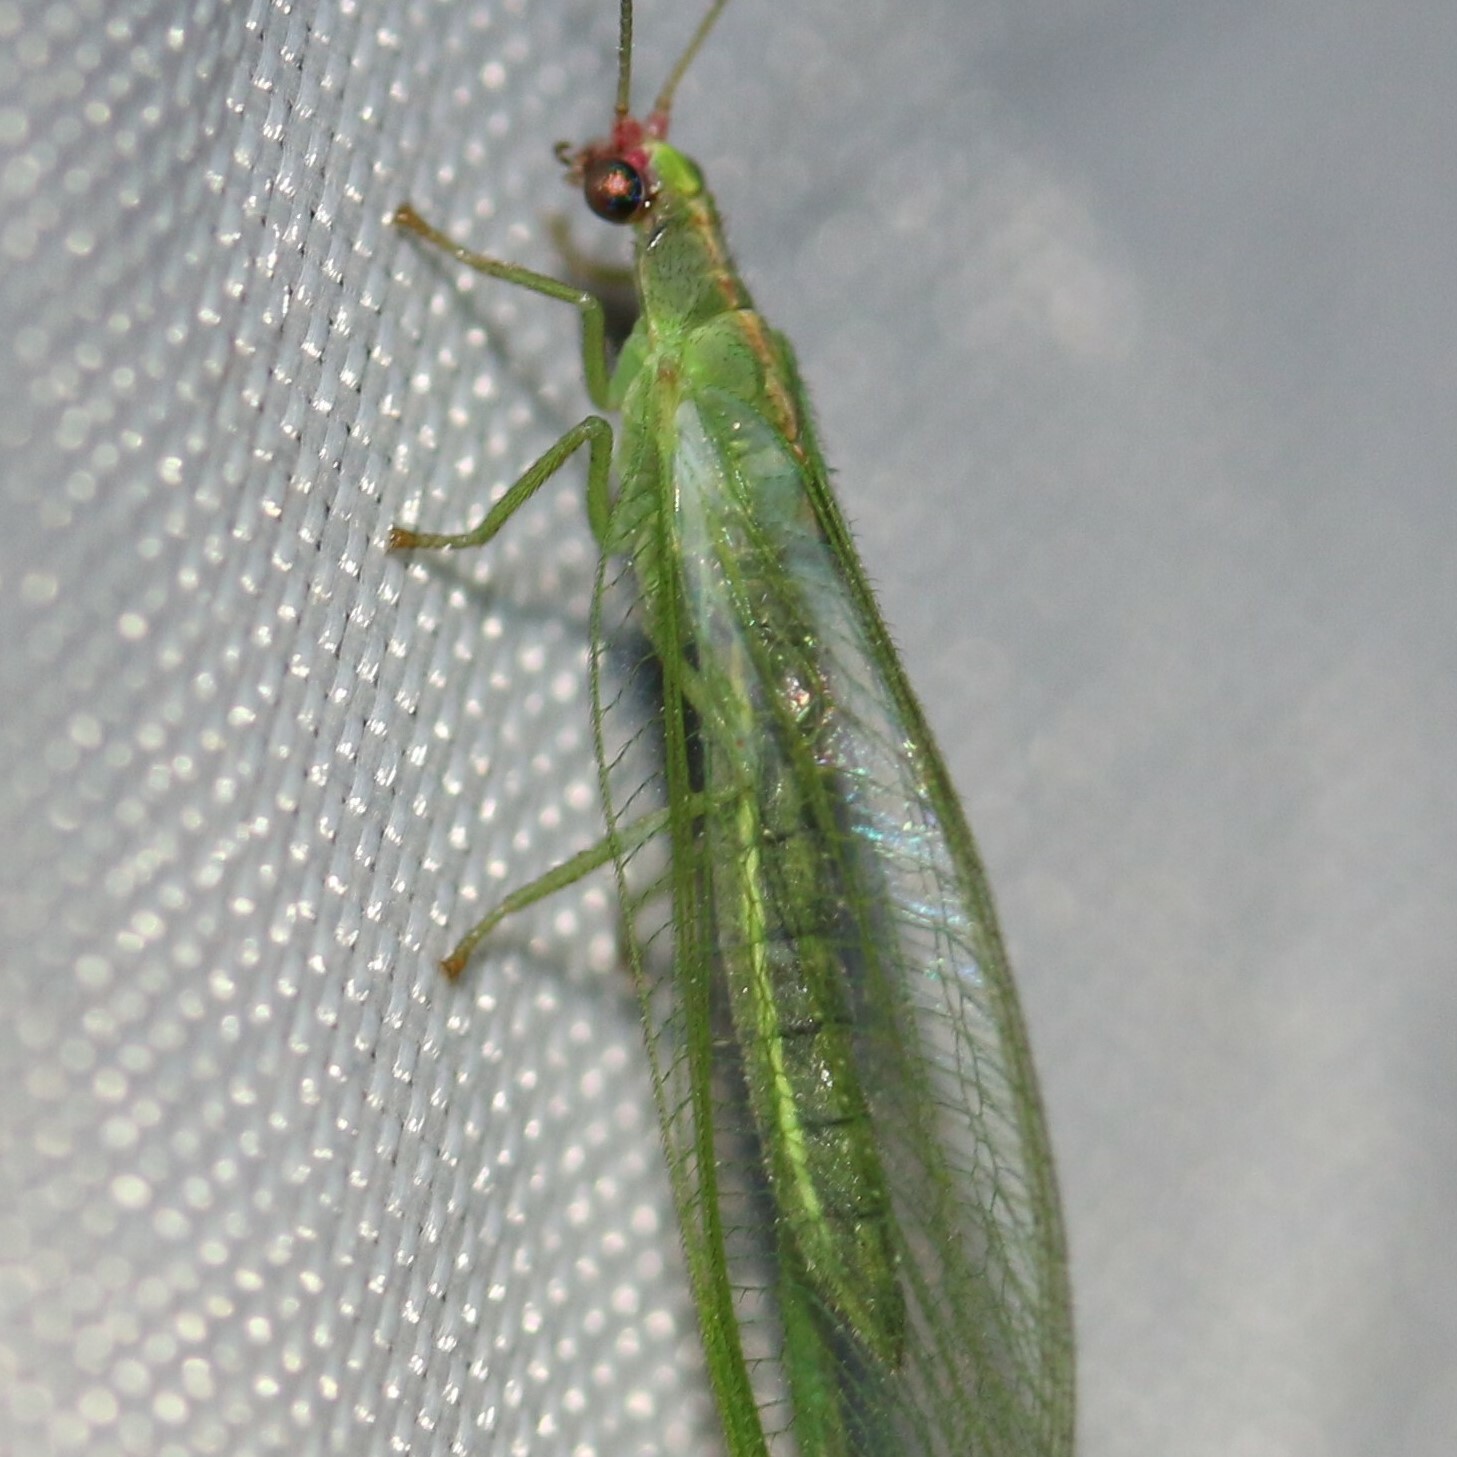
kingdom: Animalia
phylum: Arthropoda
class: Insecta
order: Neuroptera
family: Chrysopidae
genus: Peyerimhoffina
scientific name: Peyerimhoffina gracilis
